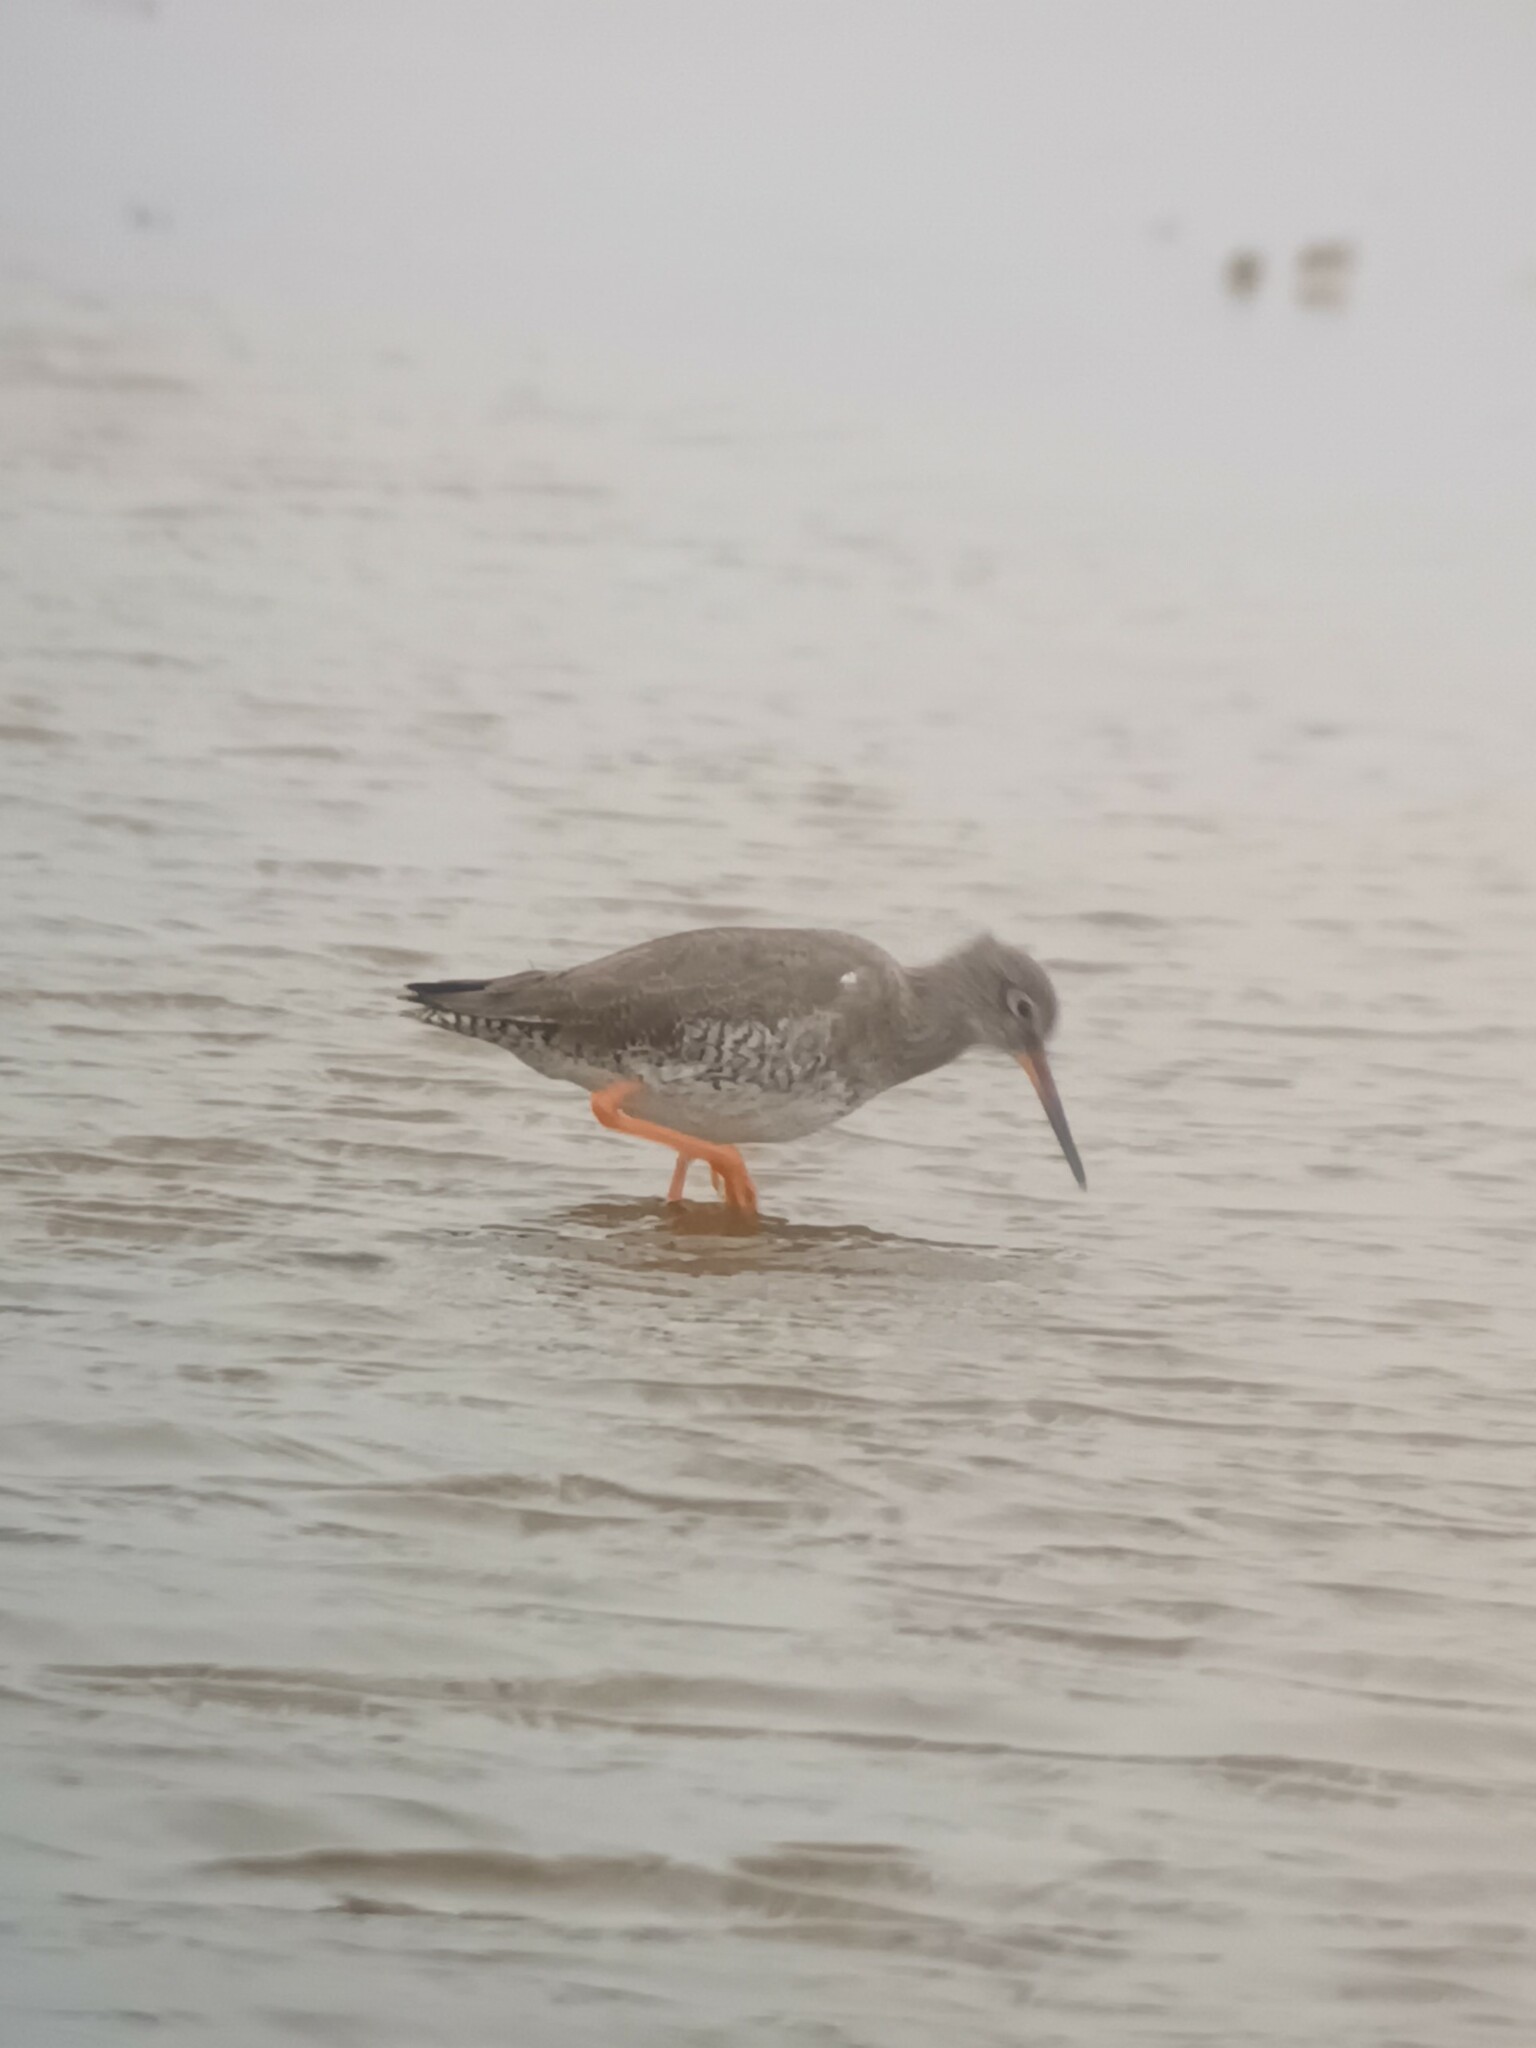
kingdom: Animalia
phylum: Chordata
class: Aves
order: Charadriiformes
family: Scolopacidae
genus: Tringa
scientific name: Tringa totanus
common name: Common redshank
